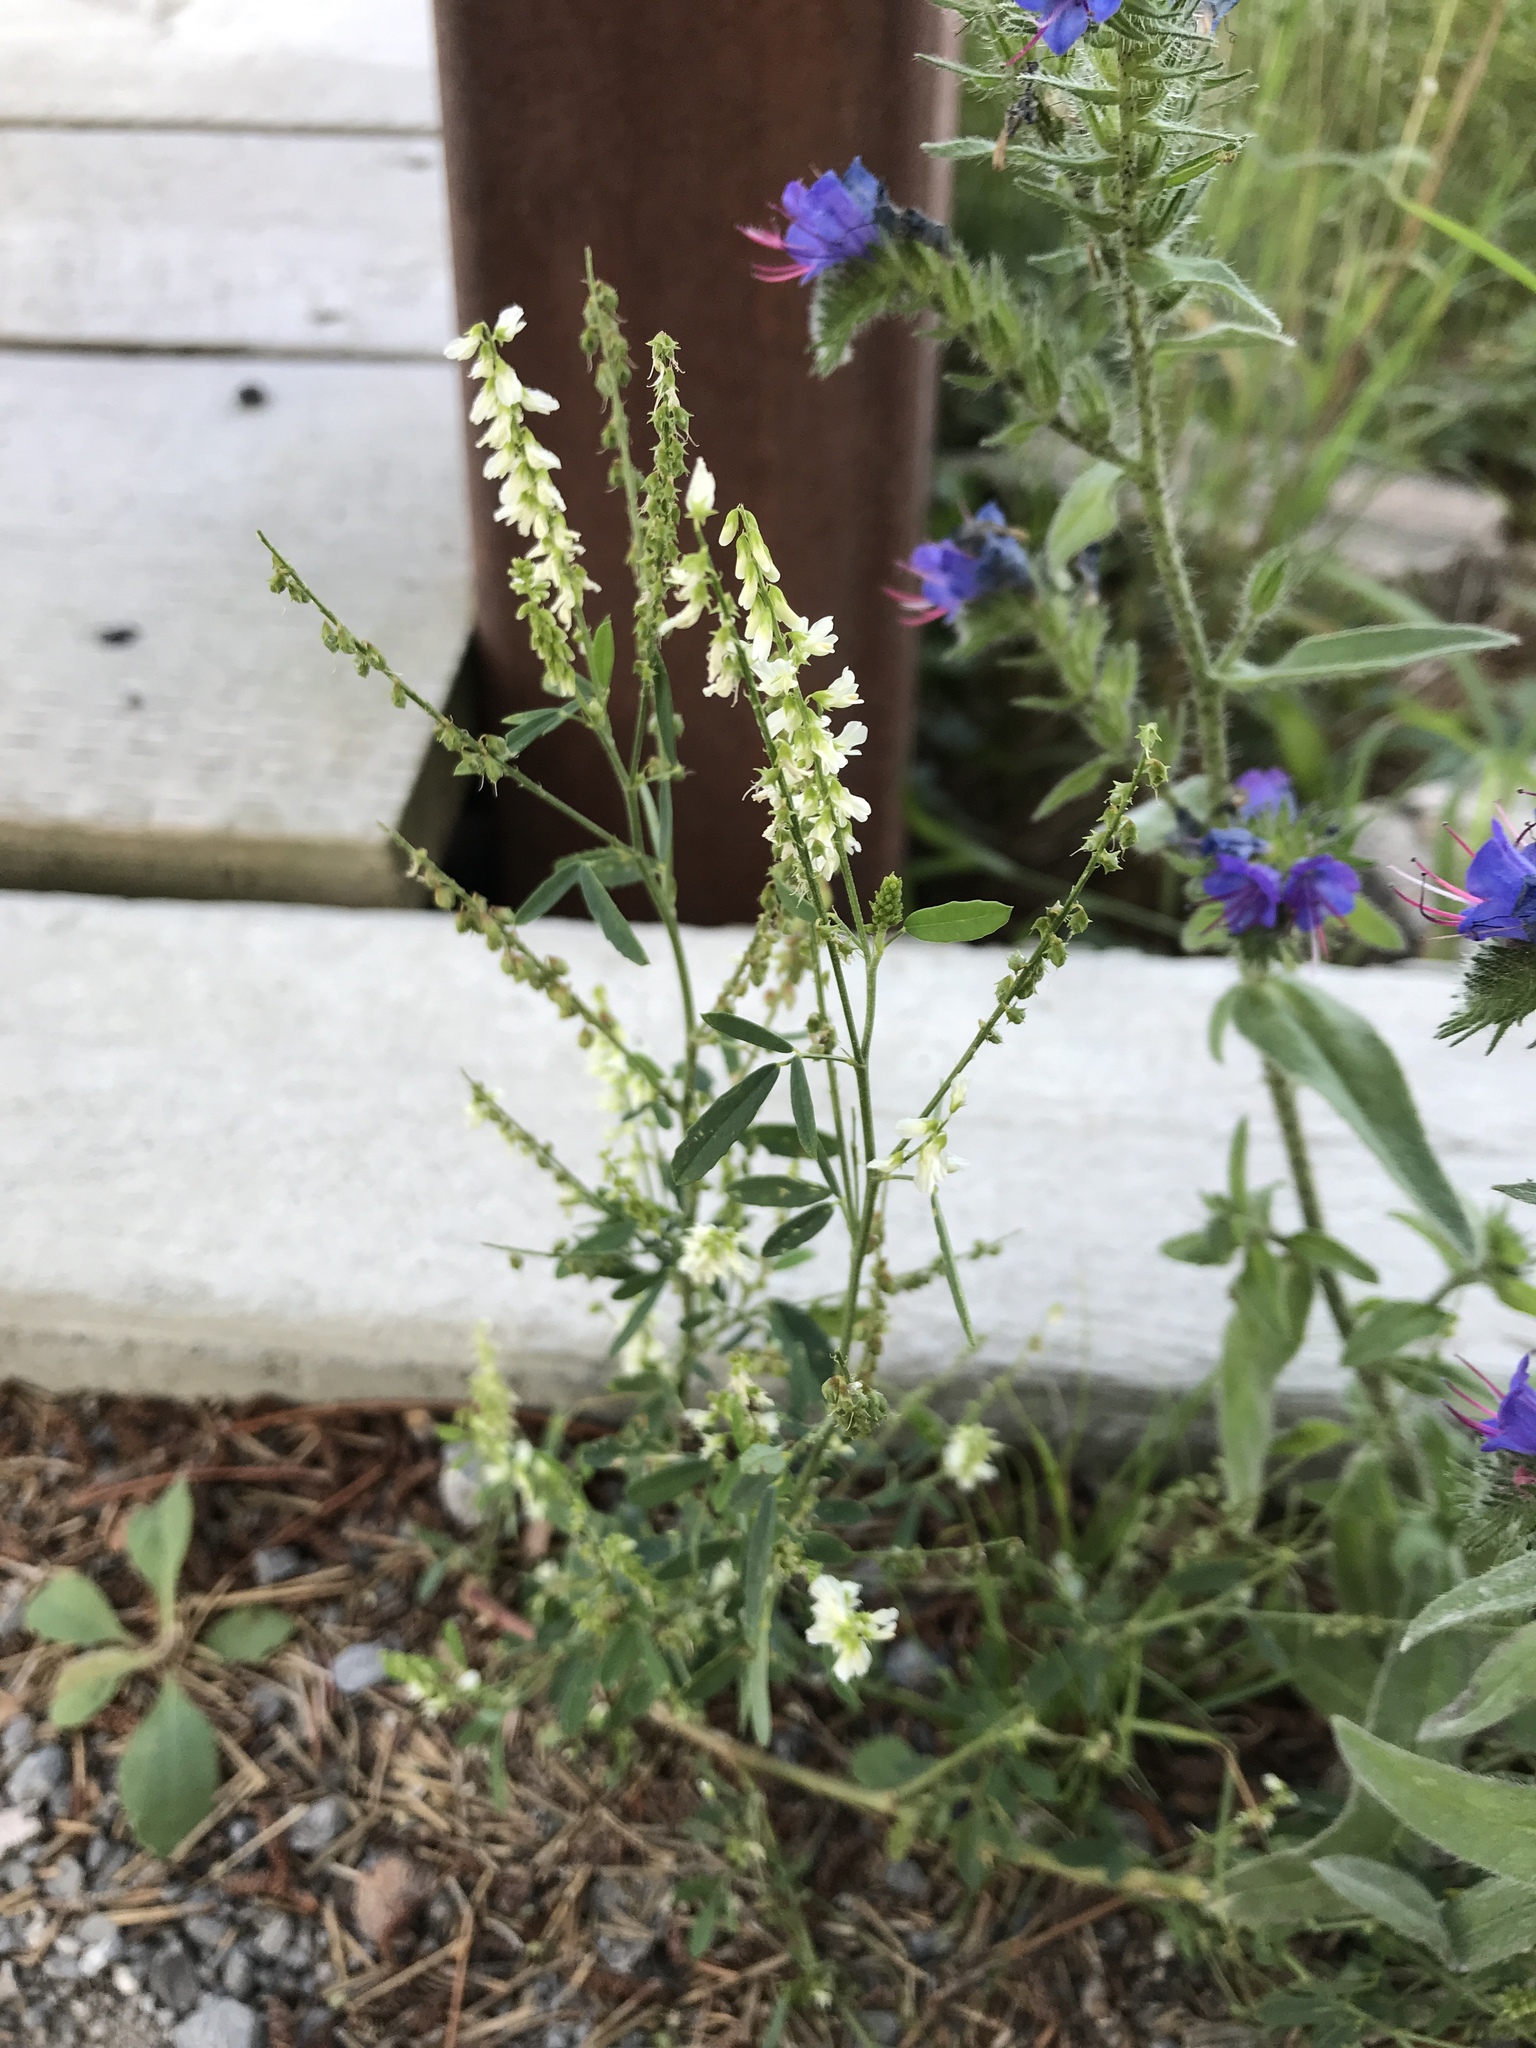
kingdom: Plantae
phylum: Tracheophyta
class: Magnoliopsida
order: Fabales
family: Fabaceae
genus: Melilotus
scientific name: Melilotus albus
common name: White melilot
